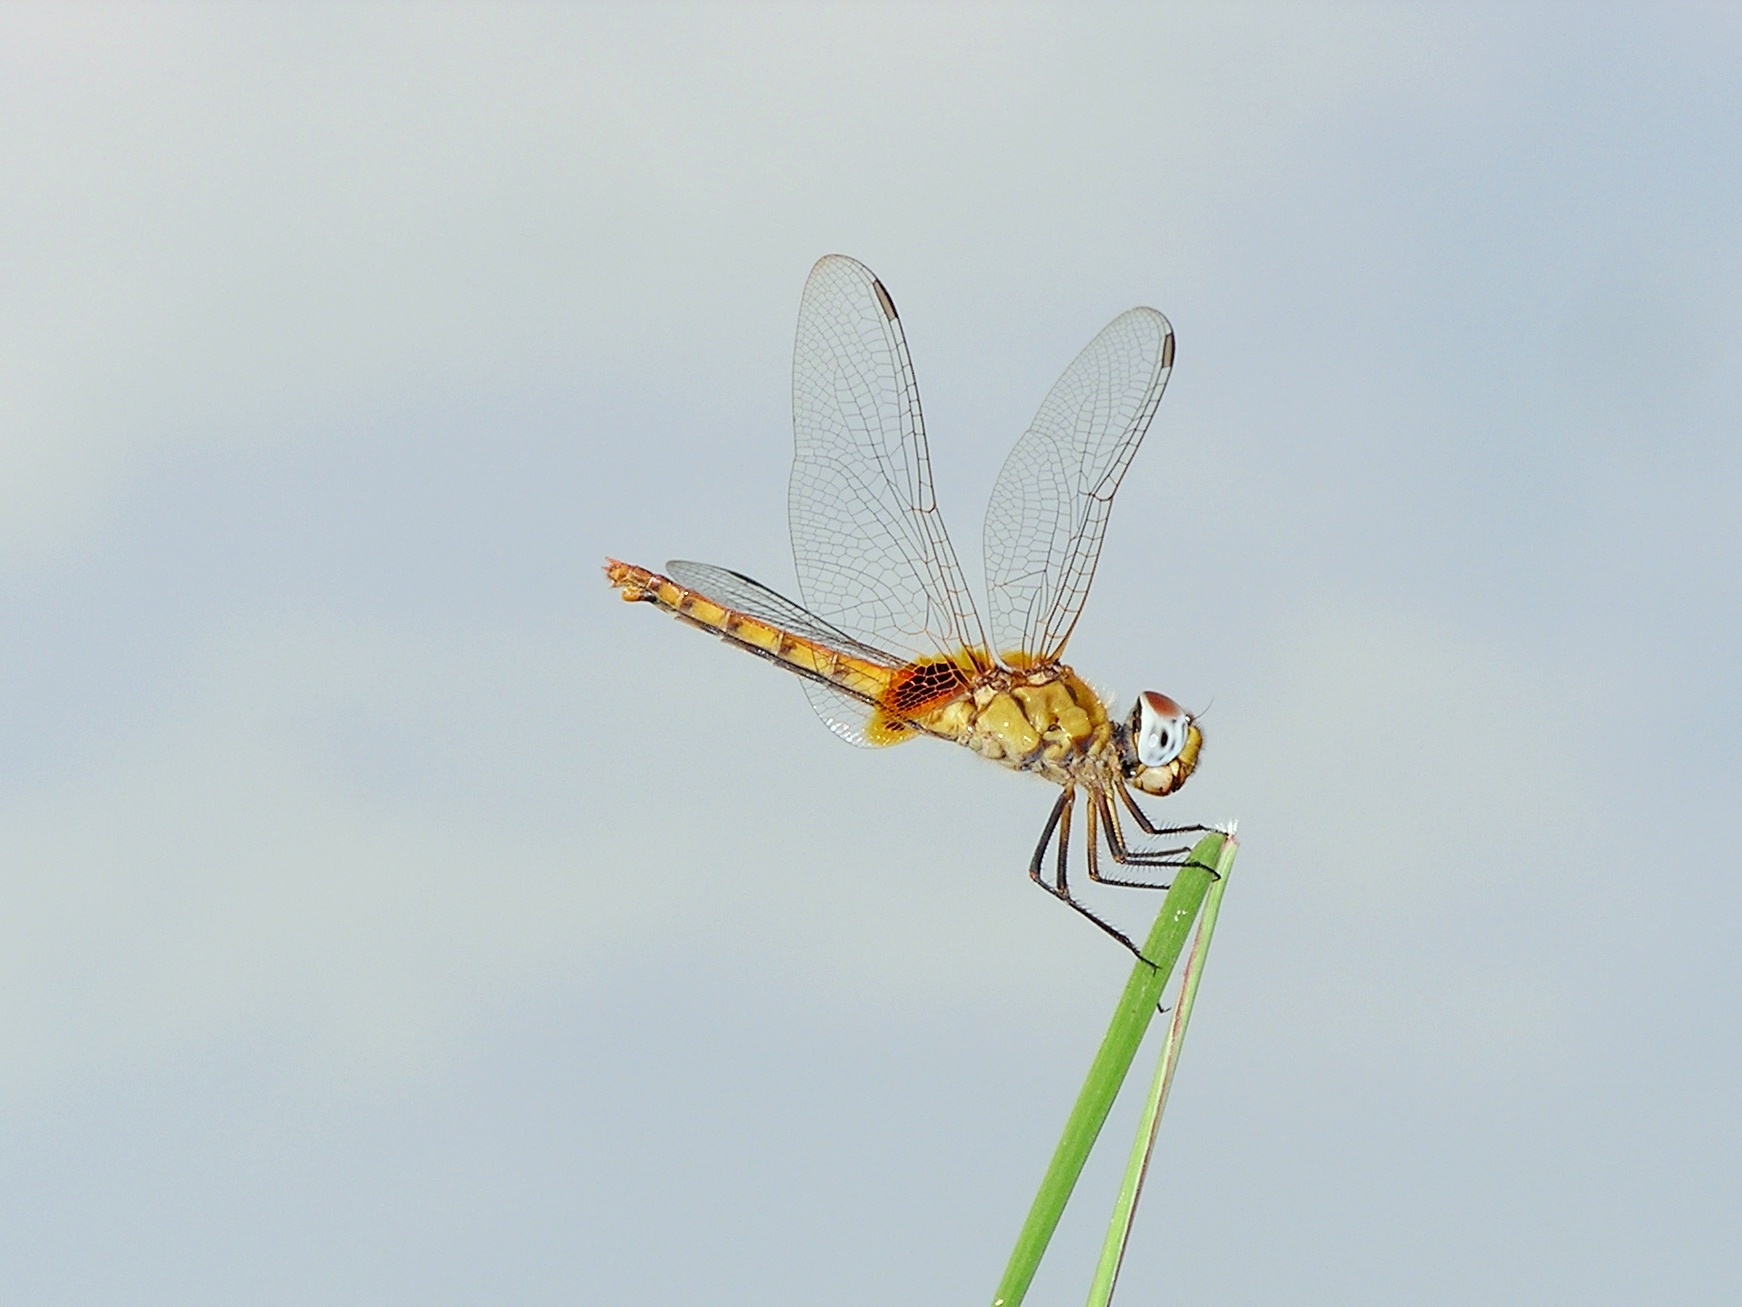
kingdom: Animalia
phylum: Arthropoda
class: Insecta
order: Odonata
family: Libellulidae
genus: Urothemis
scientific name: Urothemis signata
